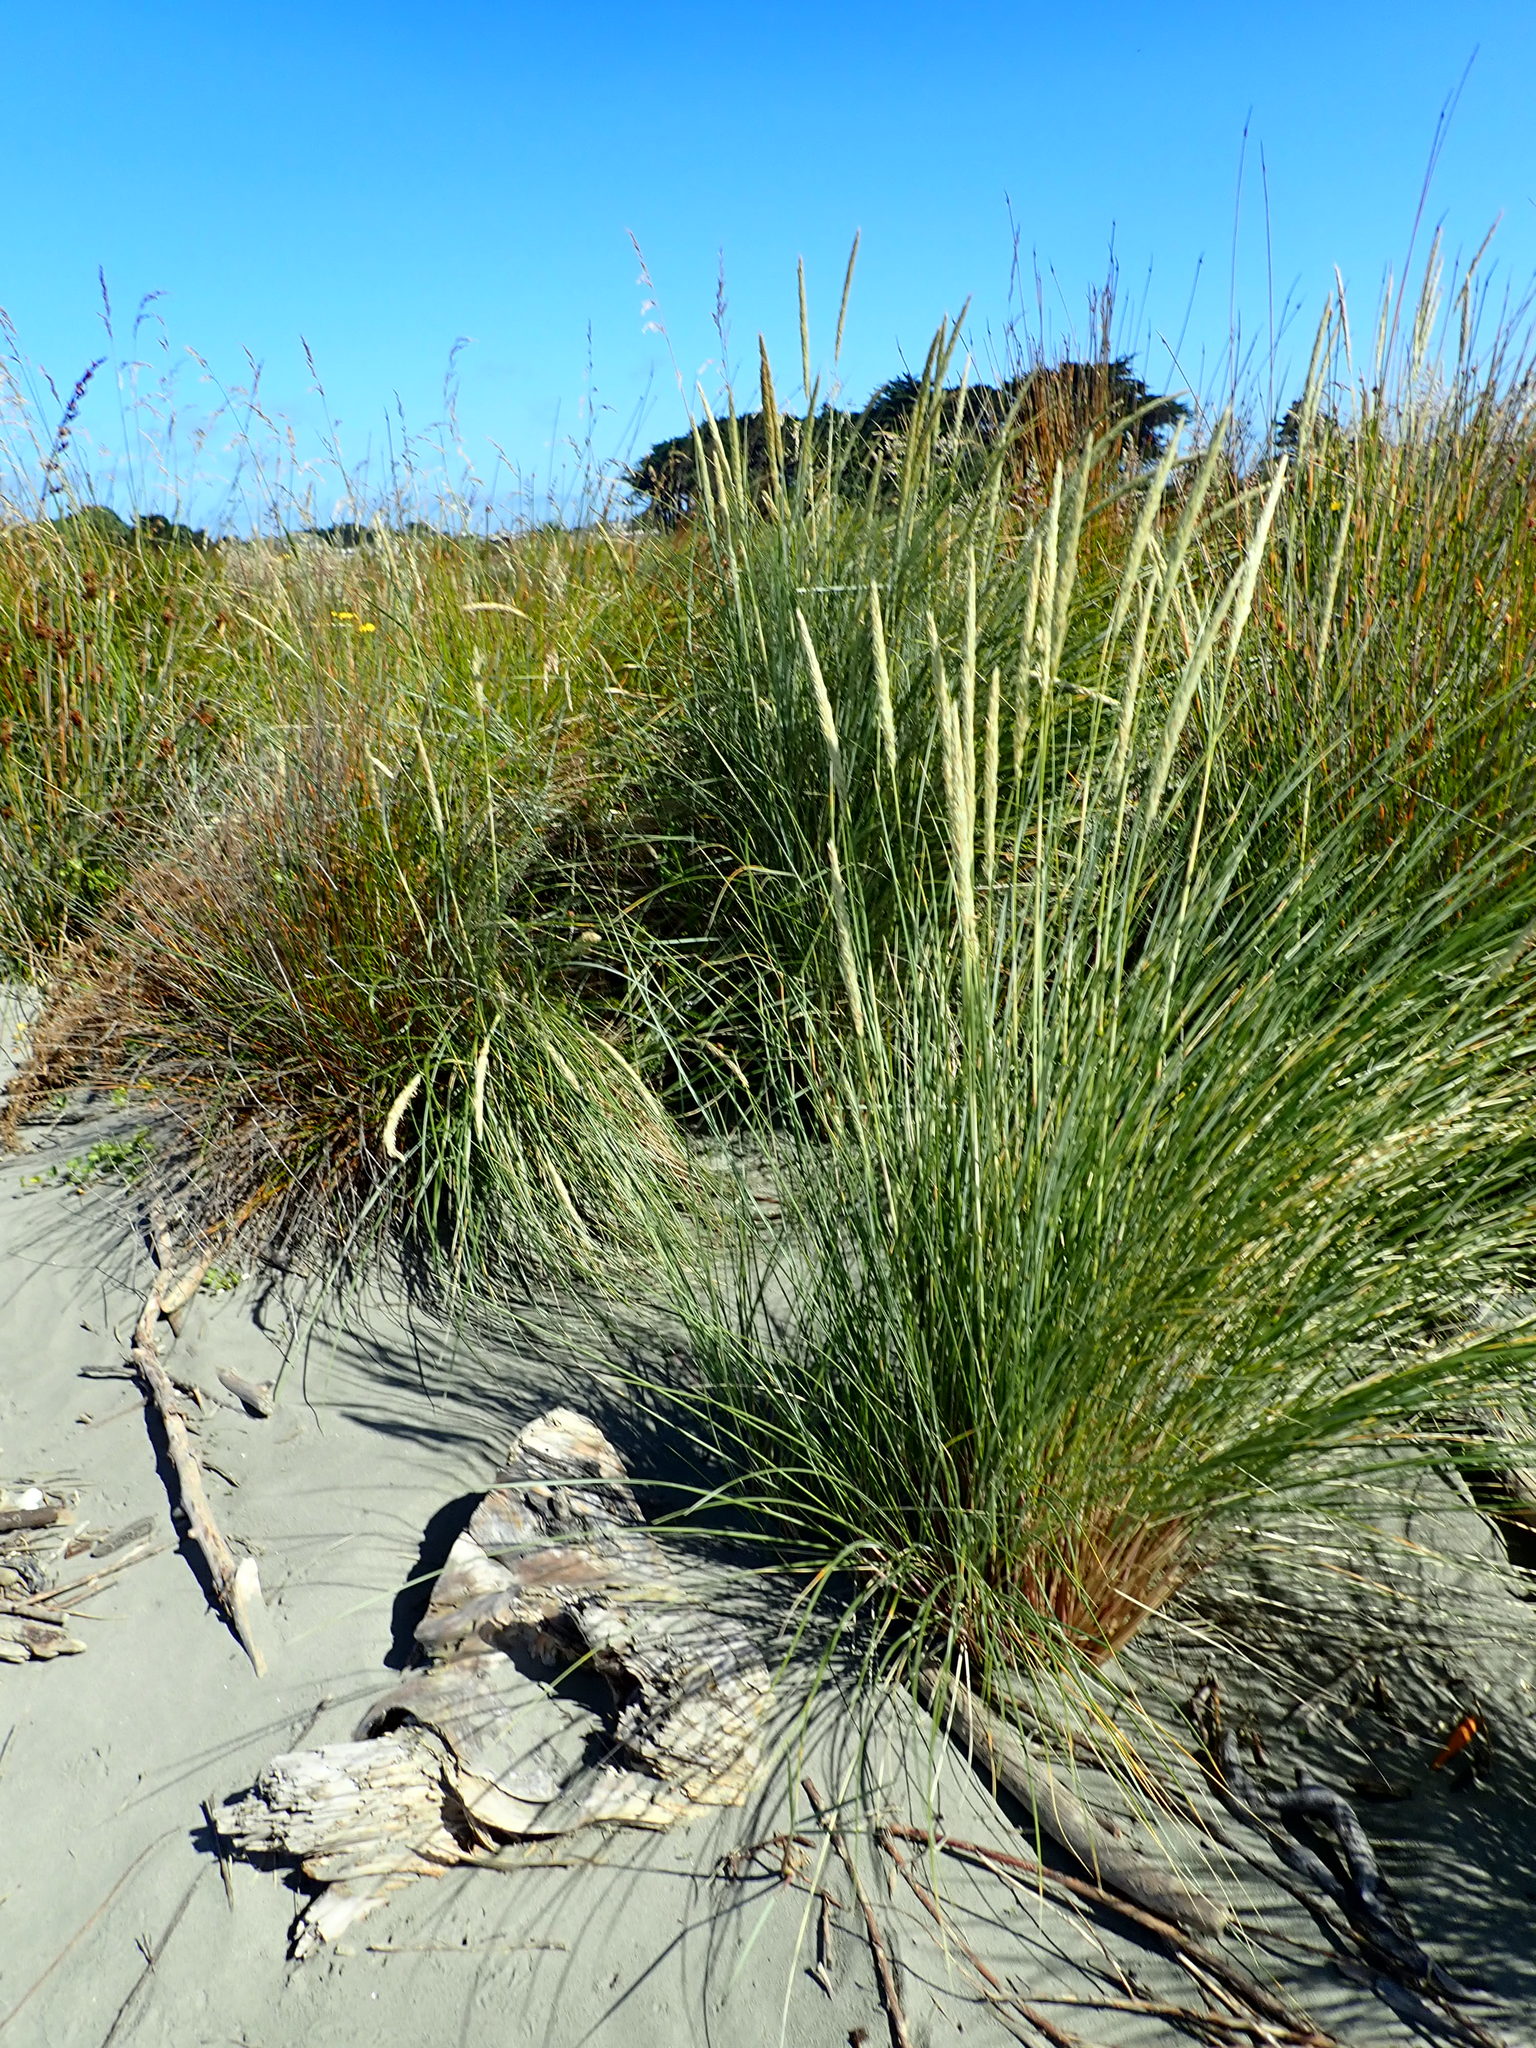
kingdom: Plantae
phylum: Tracheophyta
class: Liliopsida
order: Poales
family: Poaceae
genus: Calamagrostis
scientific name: Calamagrostis arenaria
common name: European beachgrass
